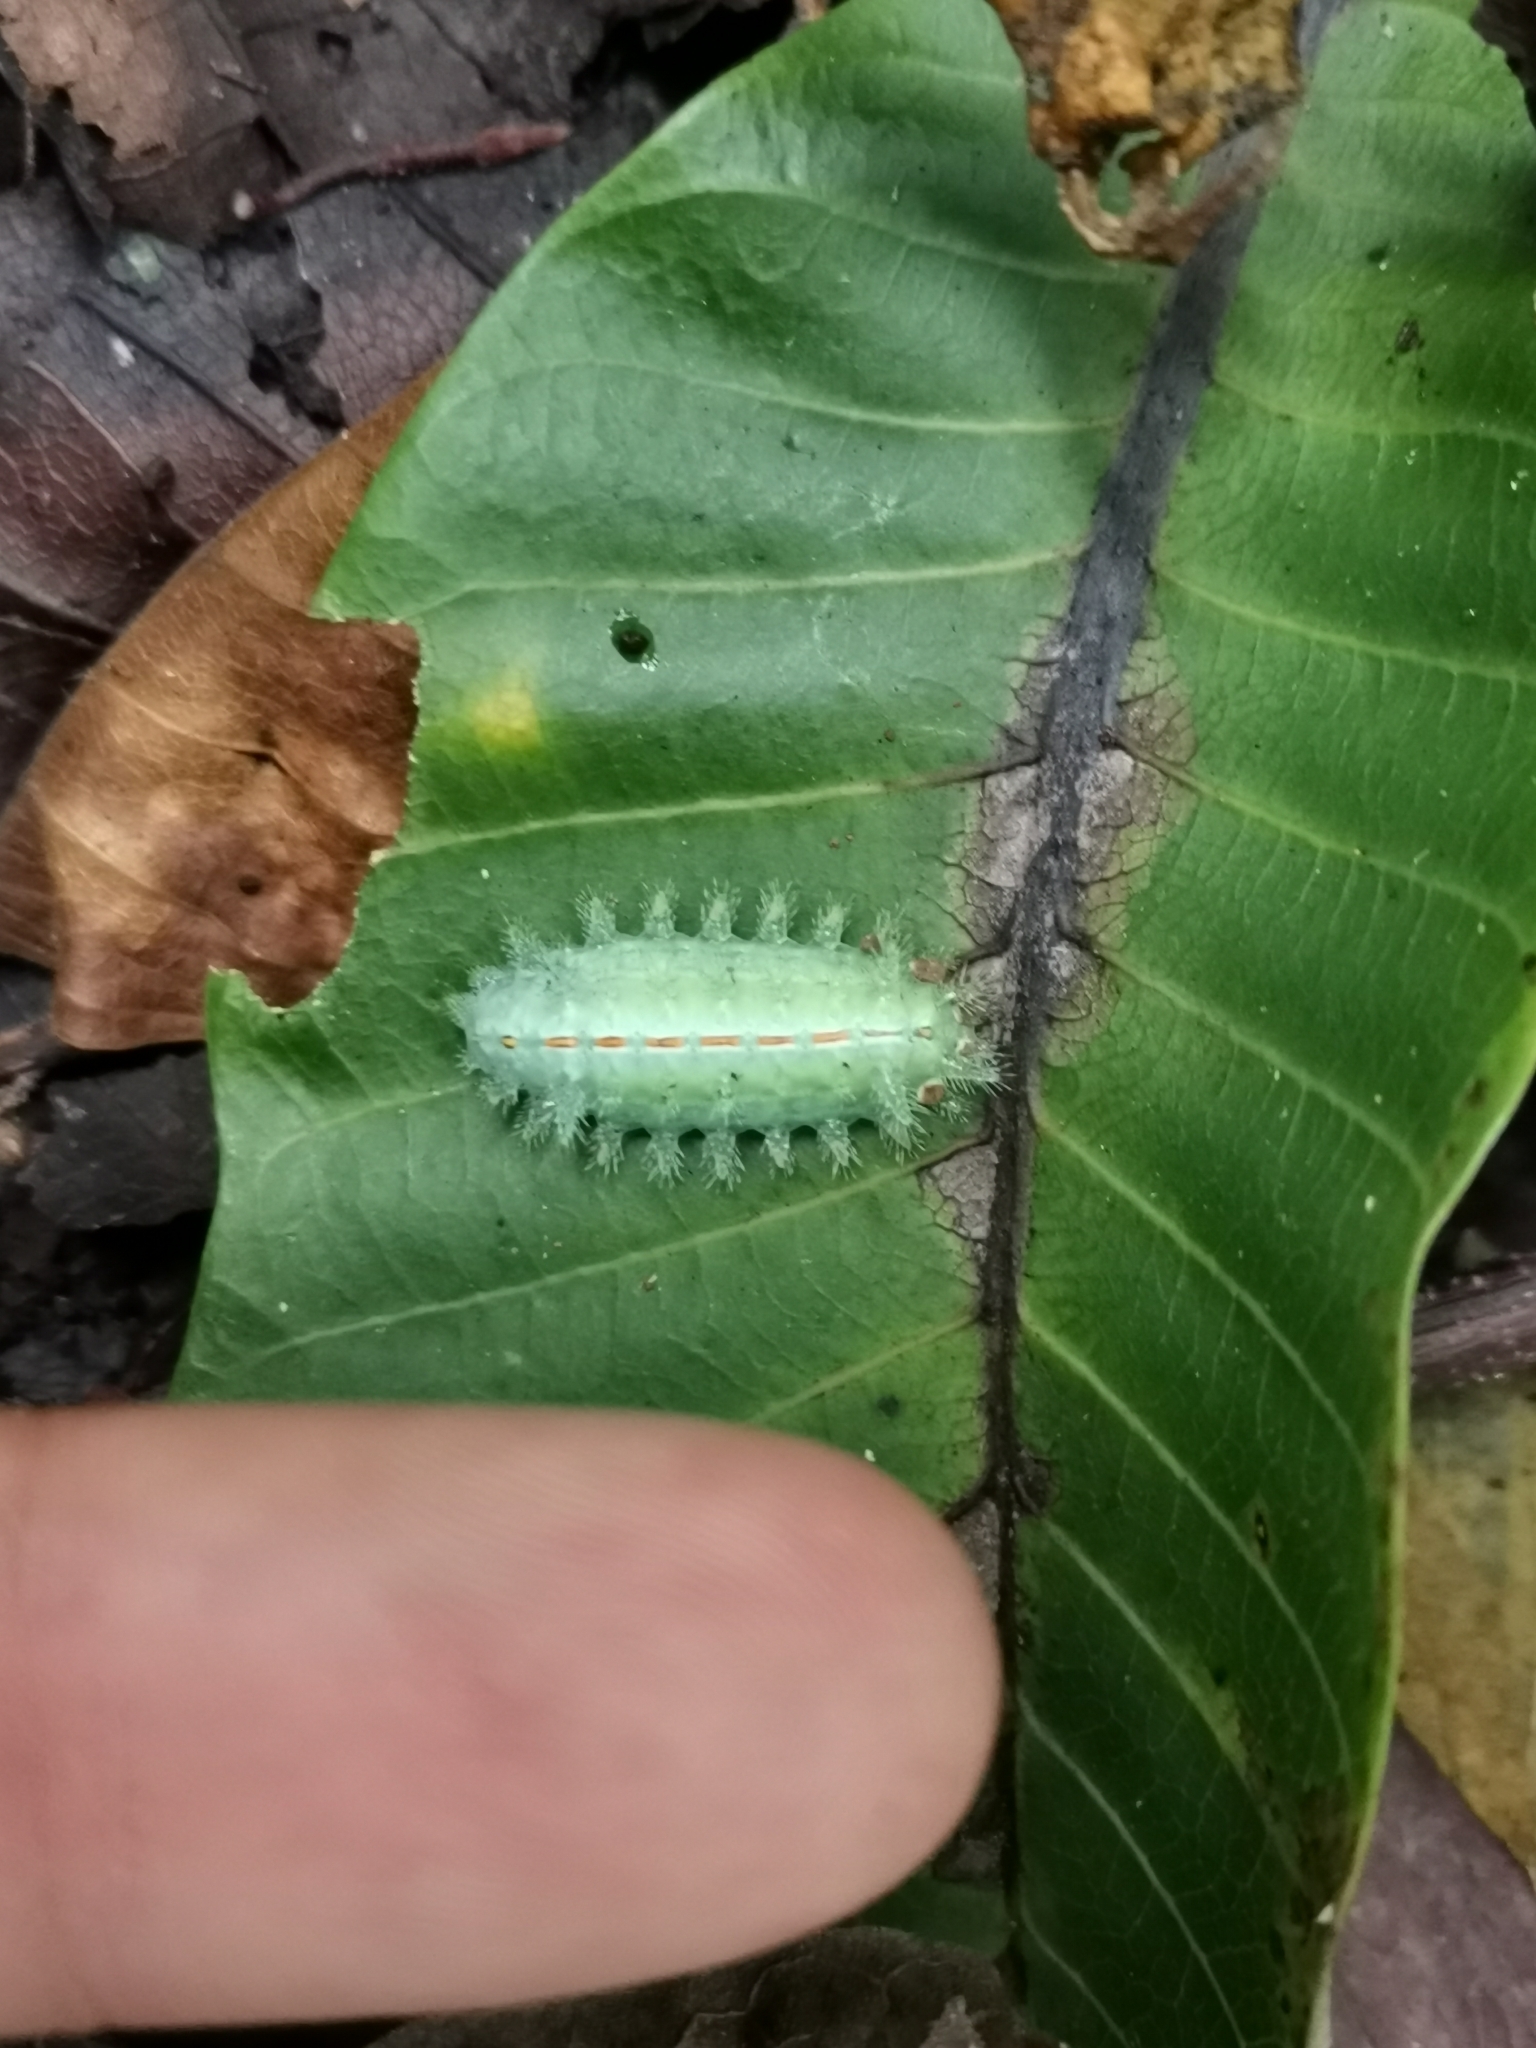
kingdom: Animalia
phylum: Arthropoda
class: Insecta
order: Lepidoptera
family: Limacodidae
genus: Euclea
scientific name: Euclea plugma
